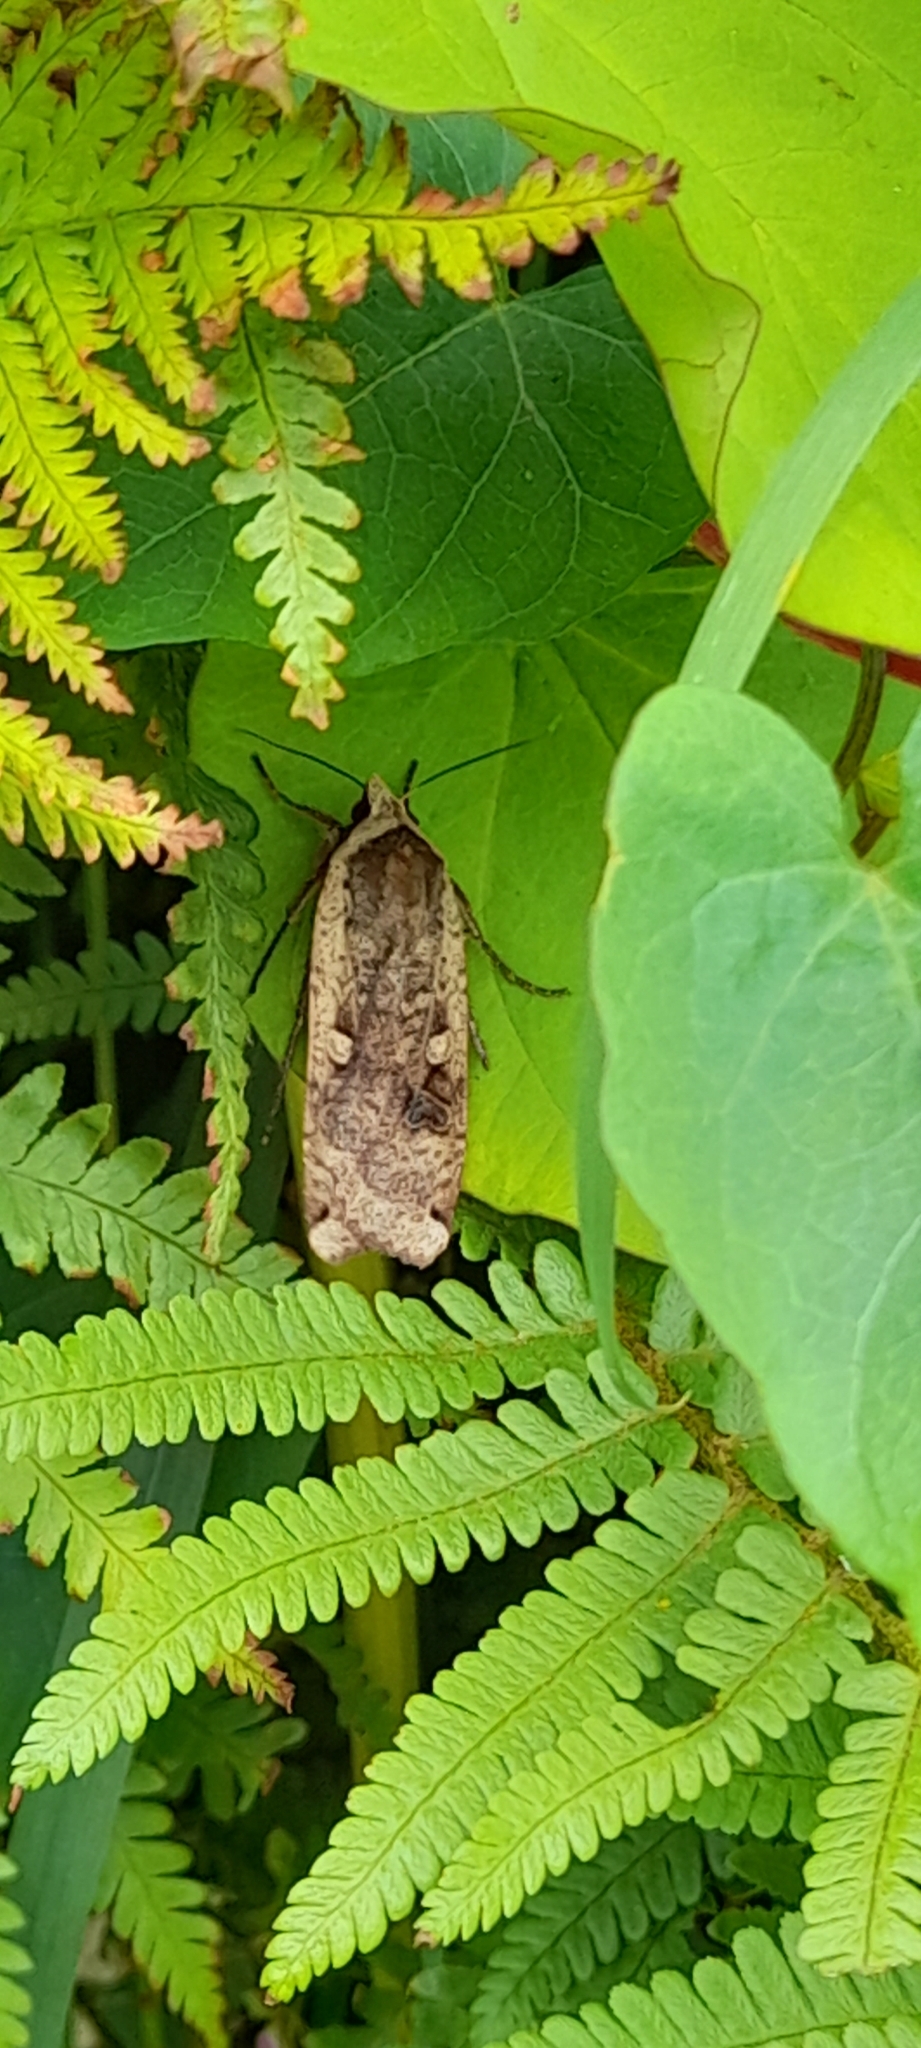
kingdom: Animalia
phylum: Arthropoda
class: Insecta
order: Lepidoptera
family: Noctuidae
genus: Noctua
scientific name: Noctua pronuba
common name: Large yellow underwing
